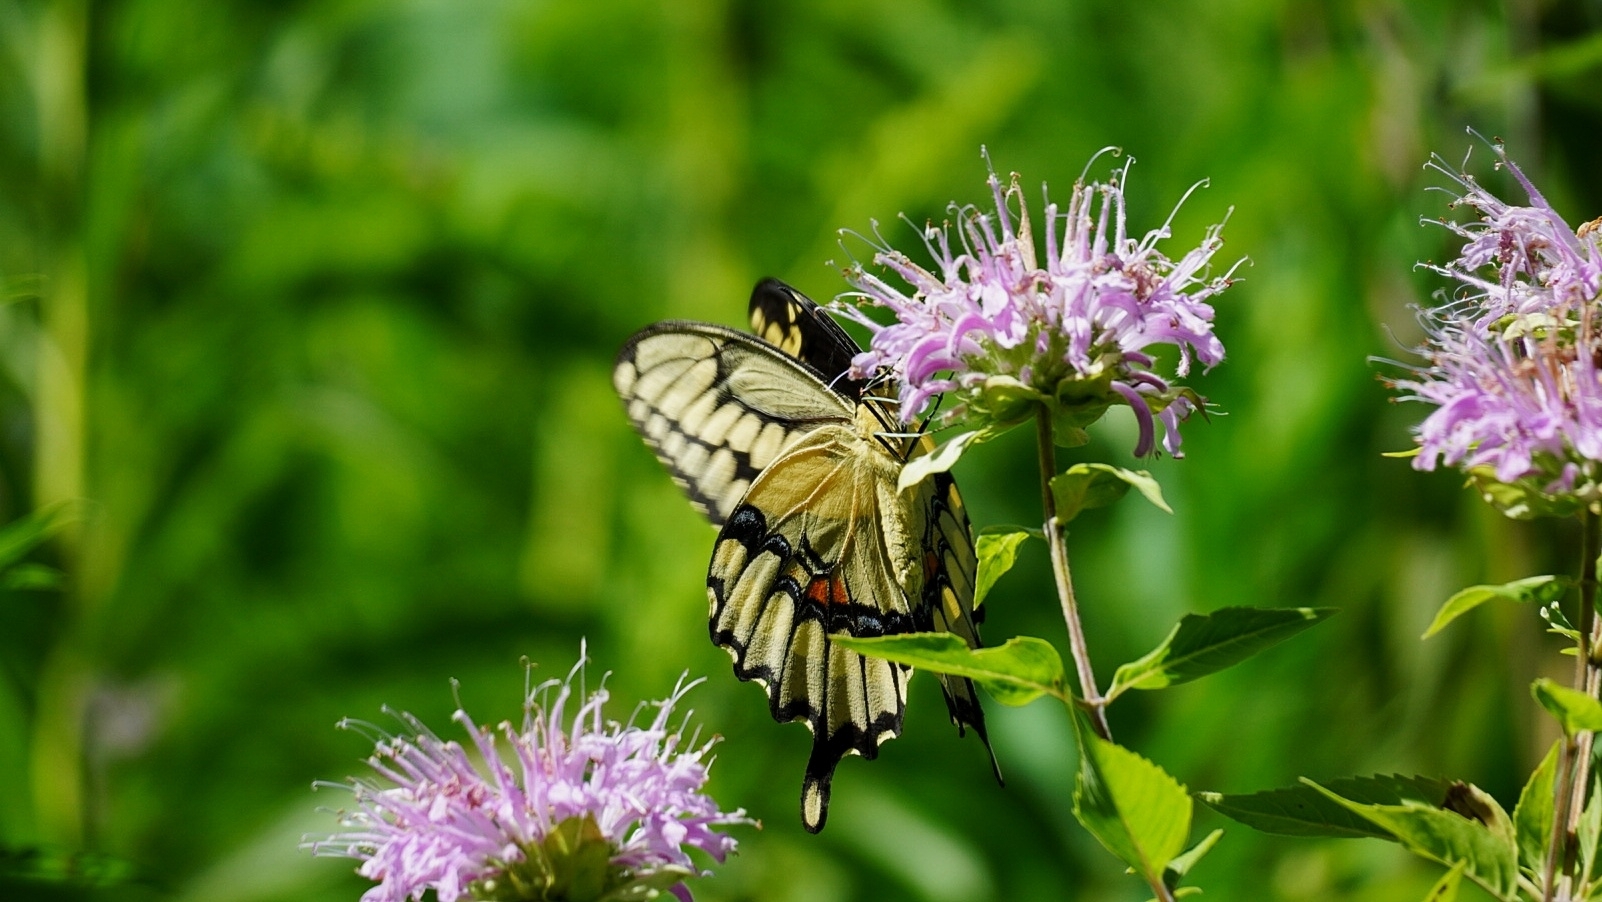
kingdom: Animalia
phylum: Arthropoda
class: Insecta
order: Lepidoptera
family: Papilionidae
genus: Papilio
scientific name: Papilio cresphontes
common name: Giant swallowtail
